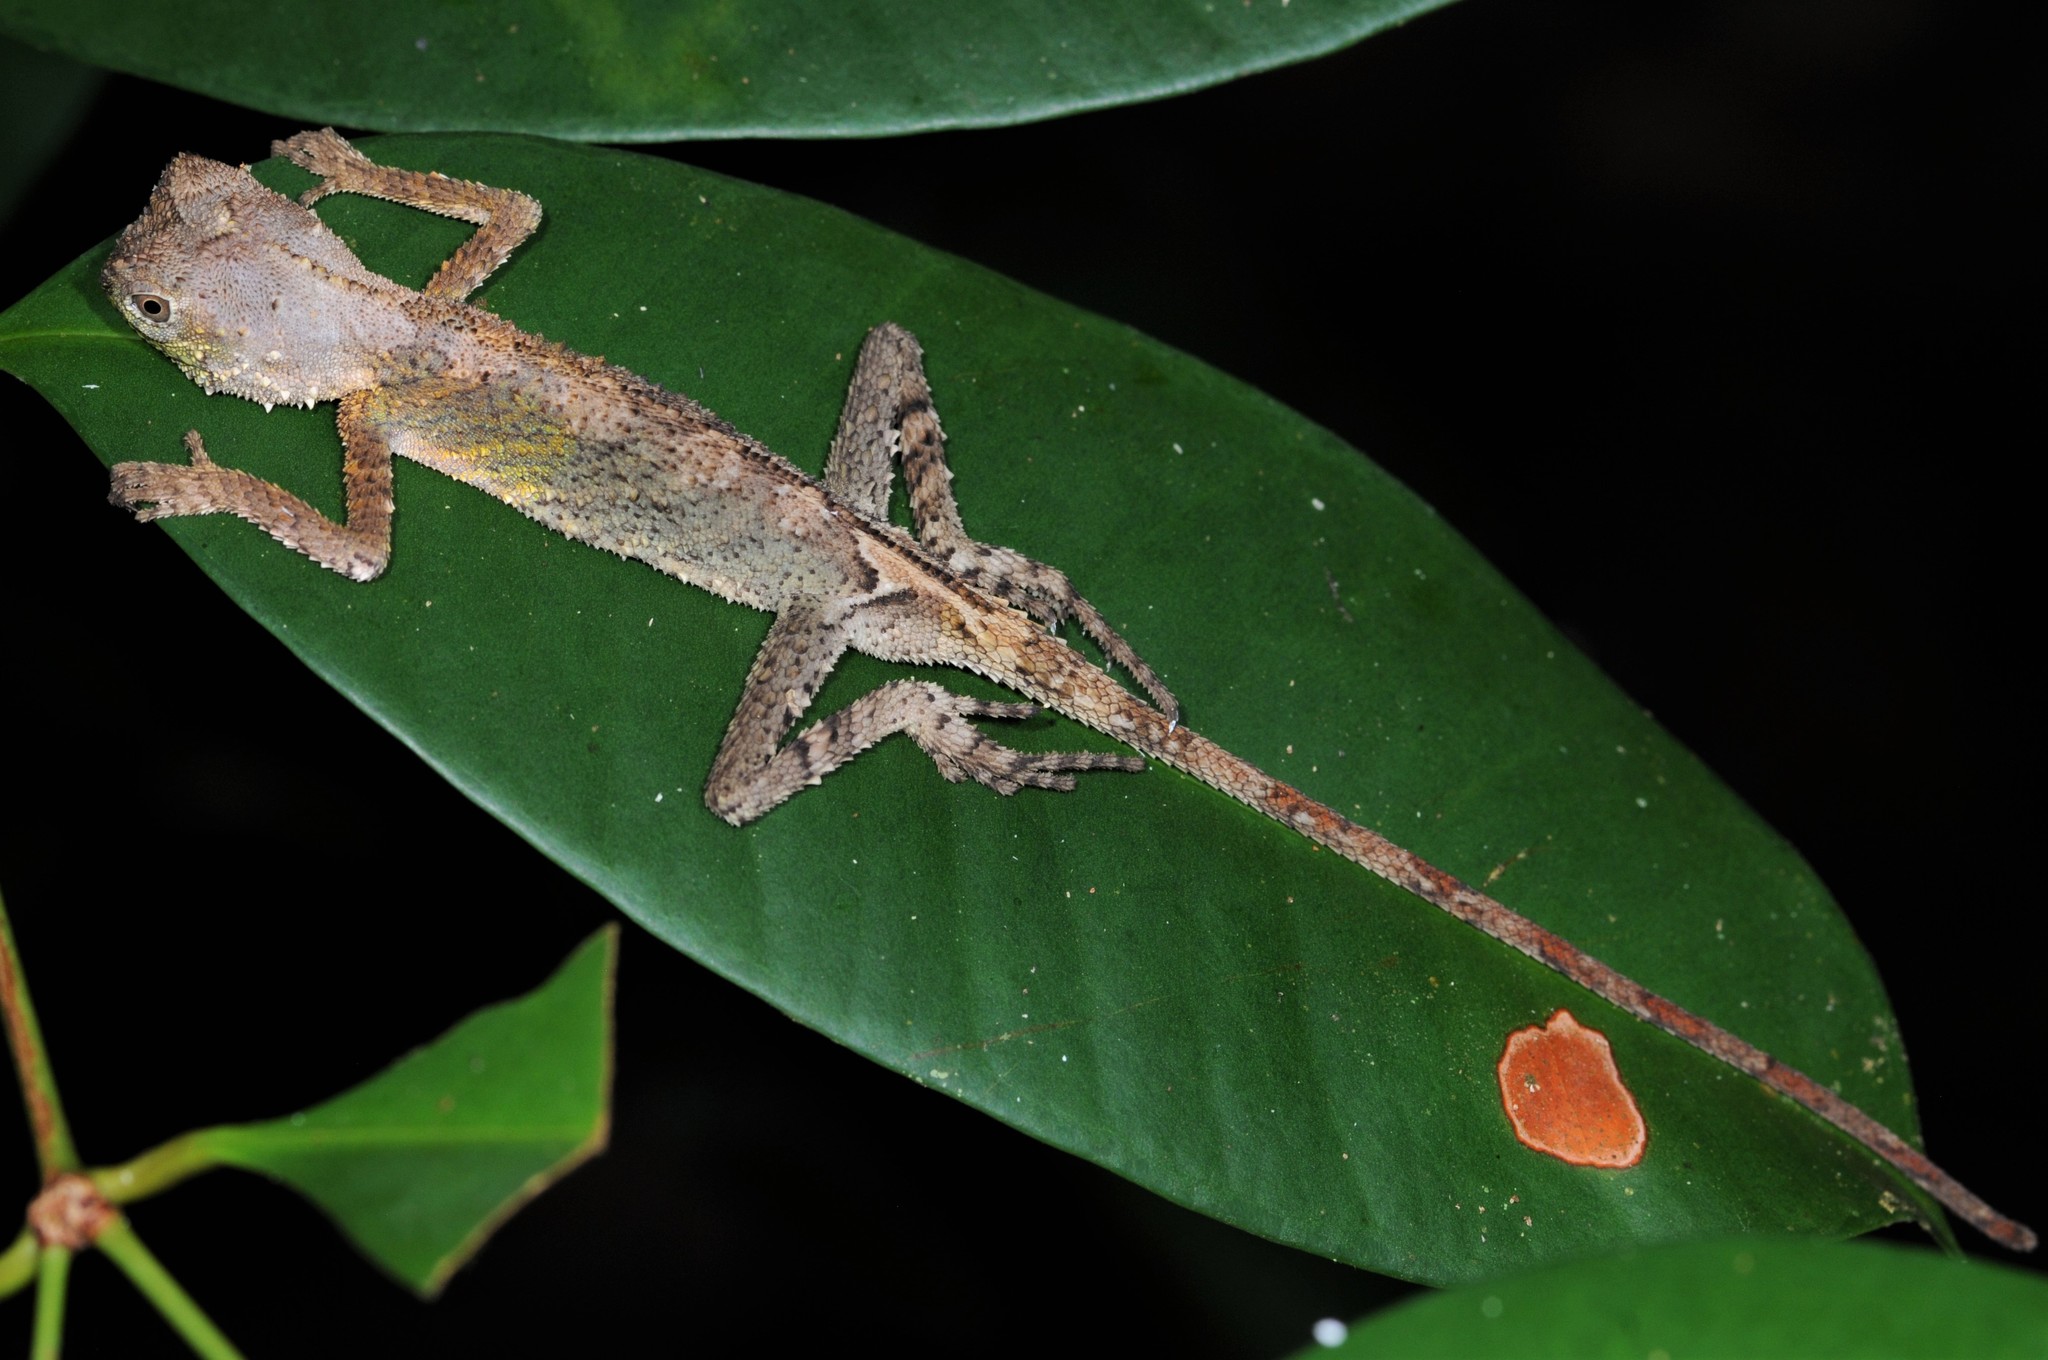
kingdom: Animalia
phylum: Chordata
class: Squamata
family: Agamidae
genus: Pelturagonia
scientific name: Pelturagonia nigrilabris
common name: Blacklipped eyebrow lizard
